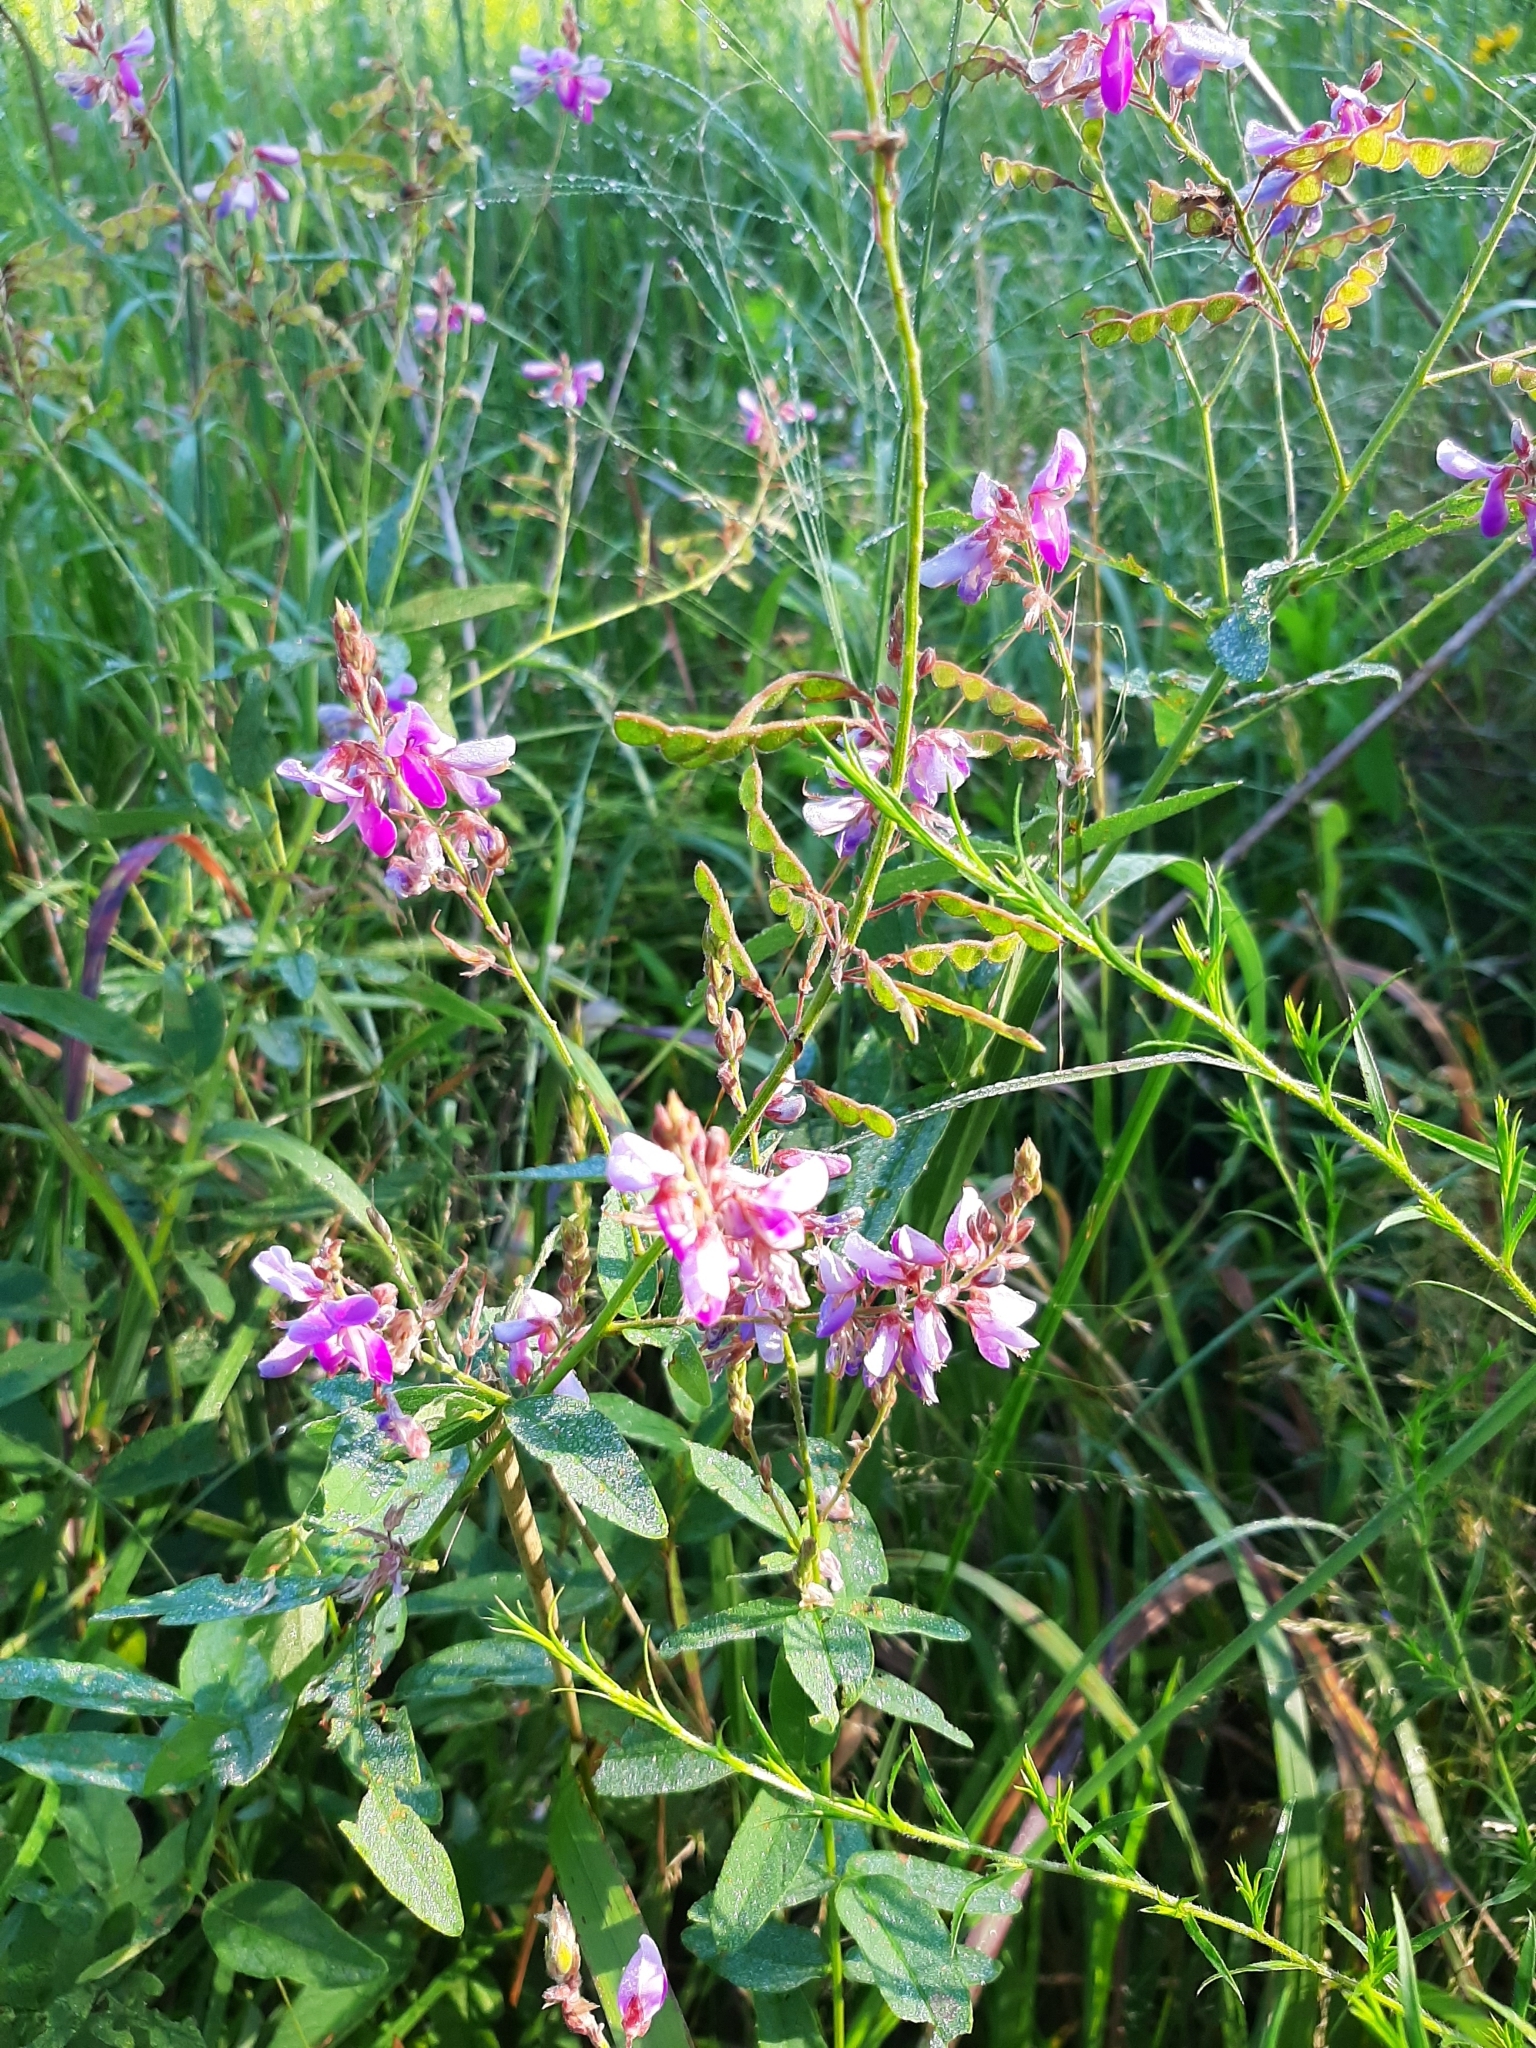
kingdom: Plantae
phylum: Tracheophyta
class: Magnoliopsida
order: Fabales
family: Fabaceae
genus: Desmodium
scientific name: Desmodium canadense
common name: Canada tick-trefoil
